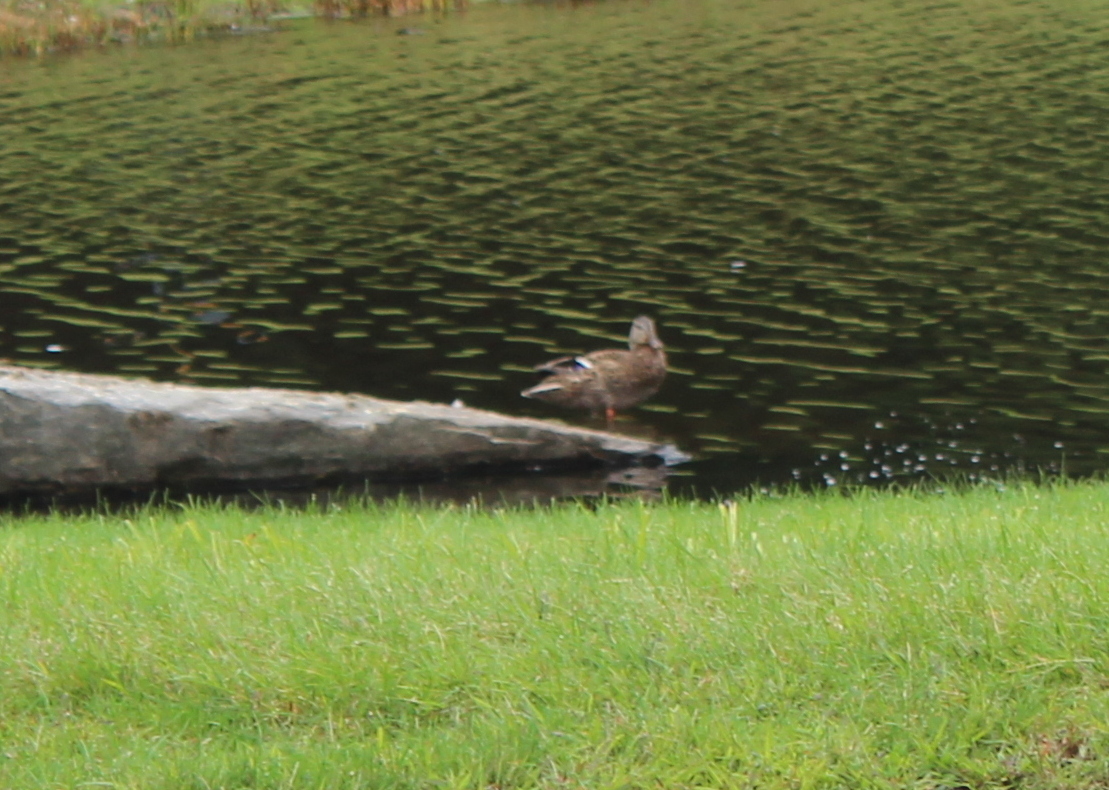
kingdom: Animalia
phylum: Chordata
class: Aves
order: Anseriformes
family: Anatidae
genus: Anas
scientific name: Anas platyrhynchos
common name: Mallard
